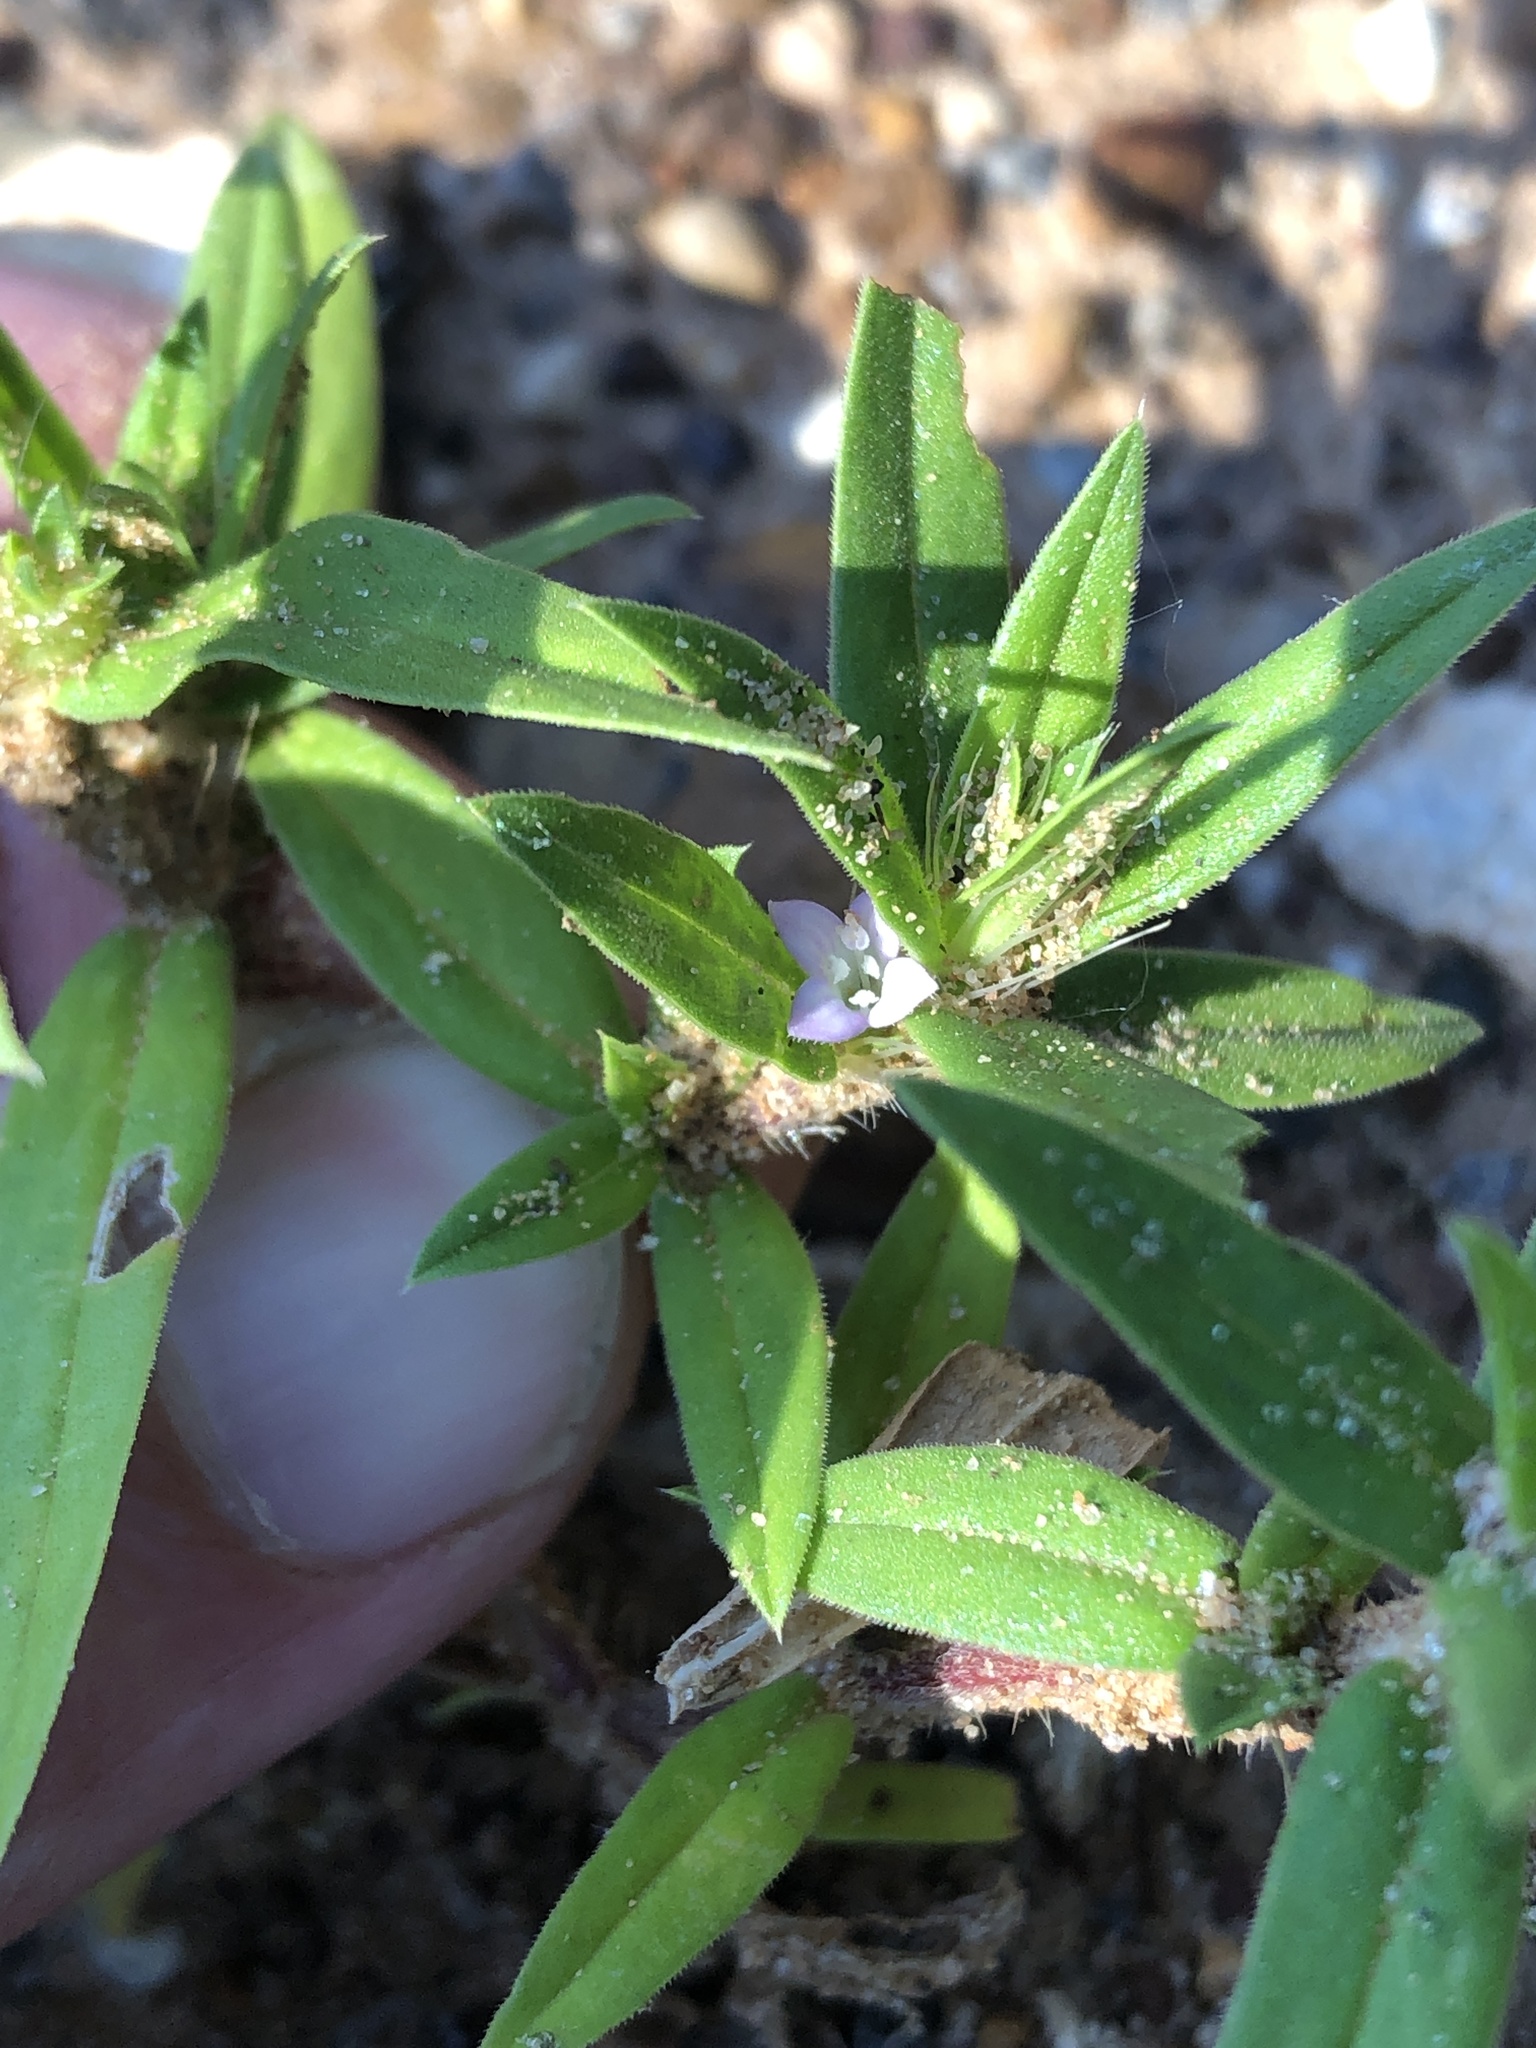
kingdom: Plantae
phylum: Tracheophyta
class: Magnoliopsida
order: Gentianales
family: Rubiaceae
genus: Hexasepalum
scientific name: Hexasepalum teres
